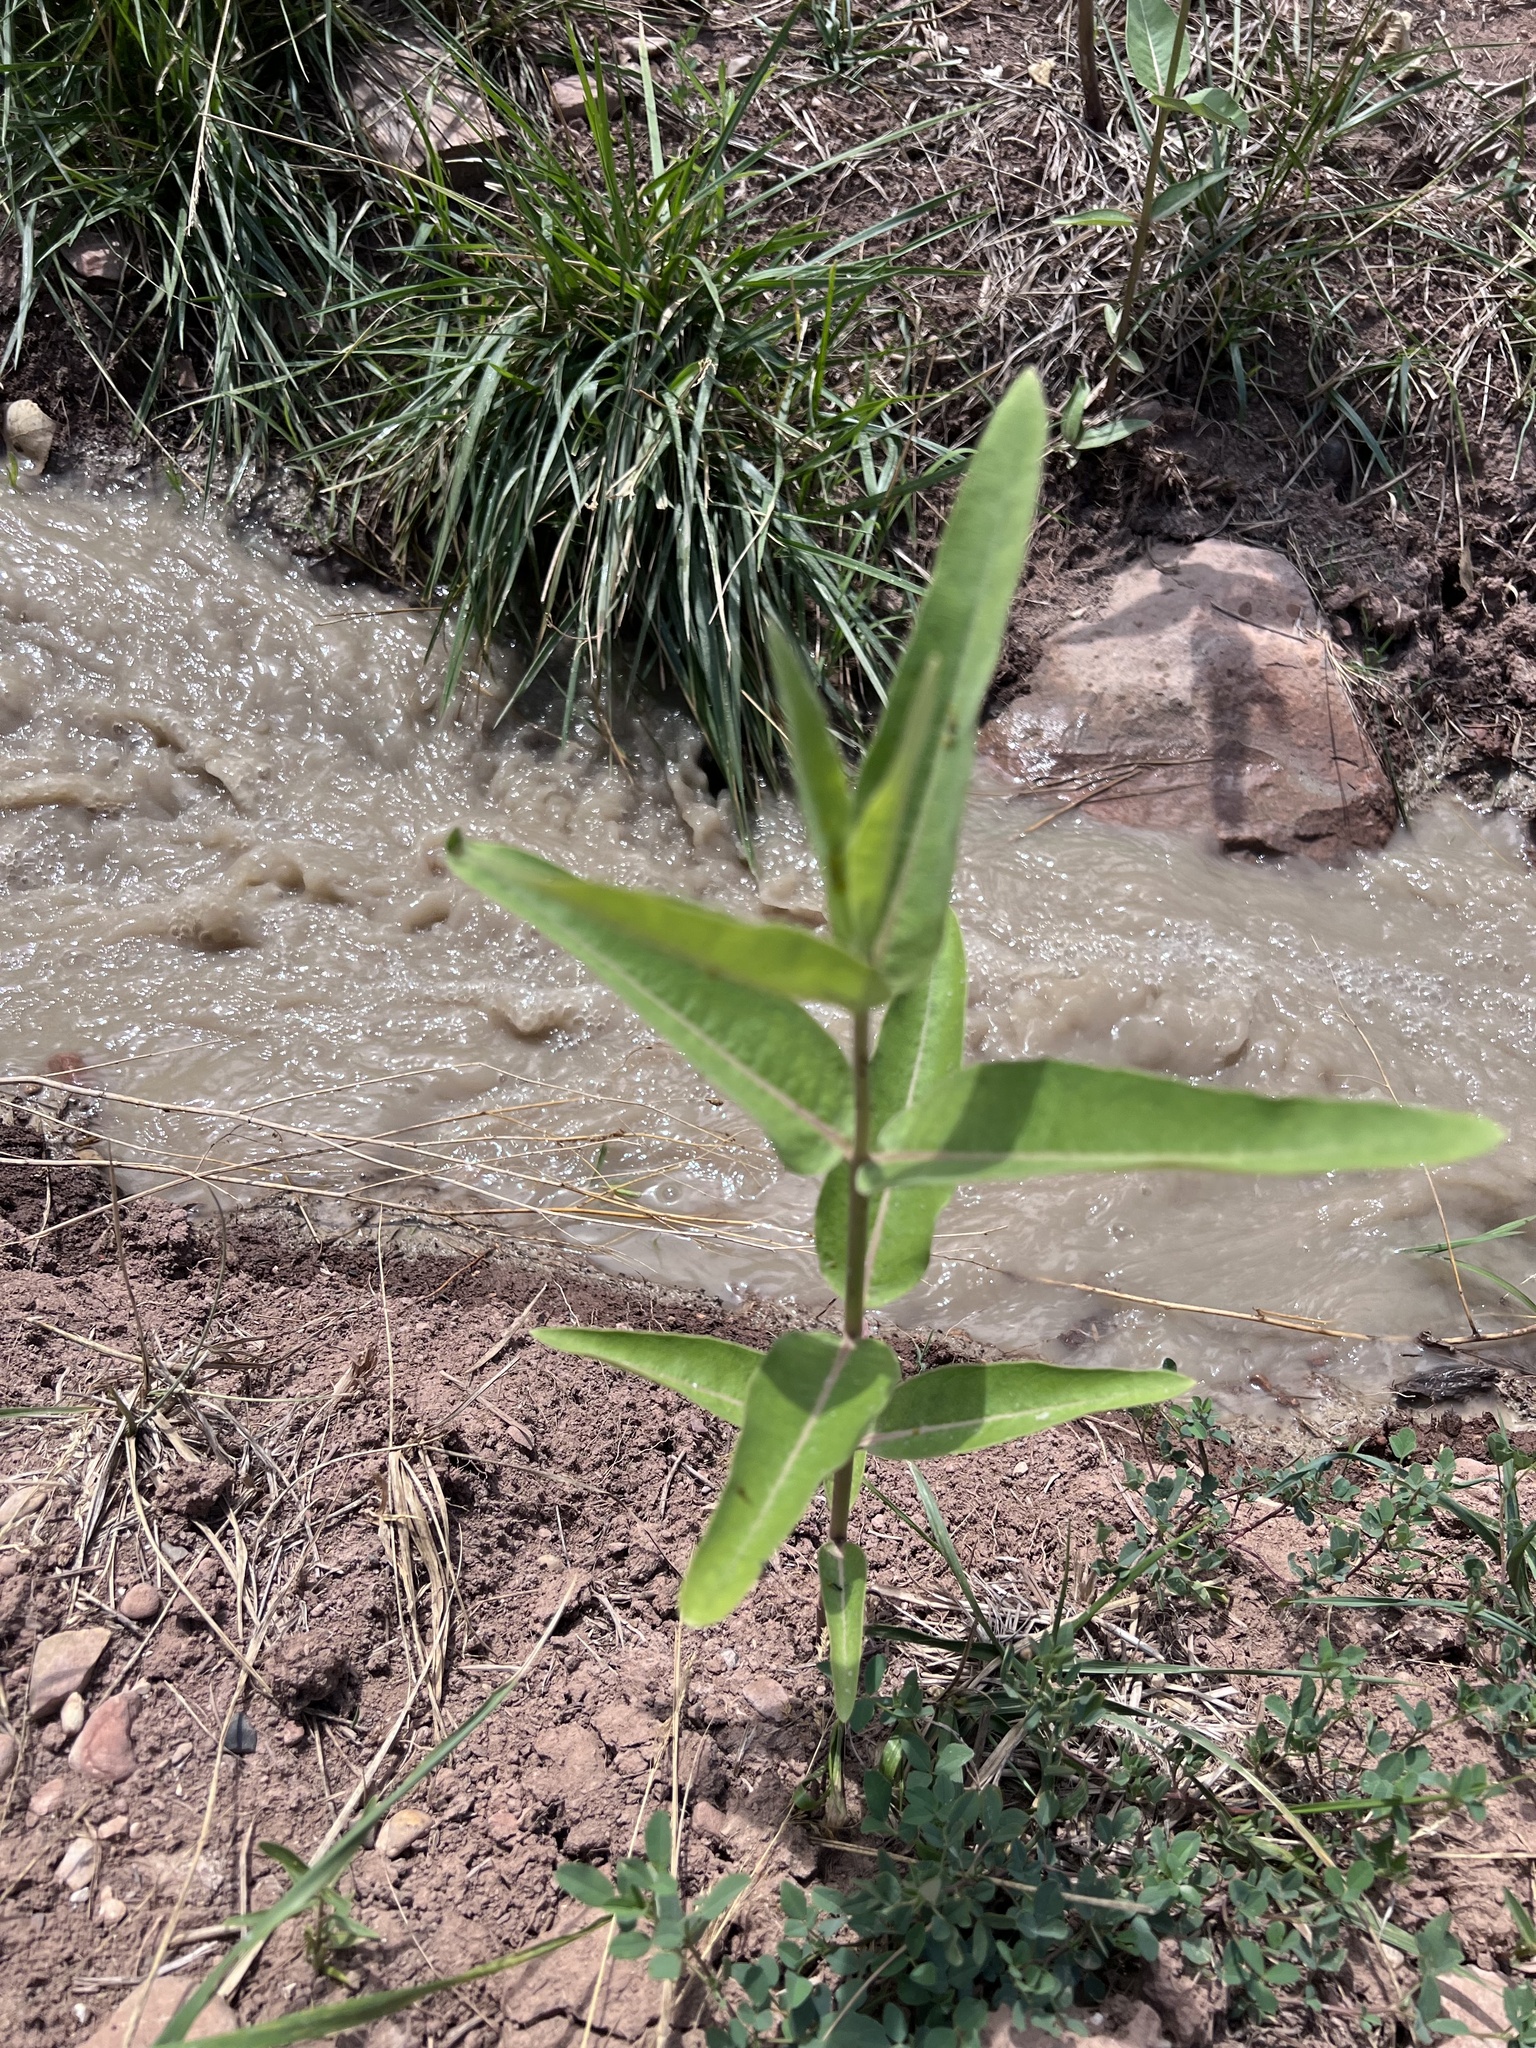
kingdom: Plantae
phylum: Tracheophyta
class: Magnoliopsida
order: Gentianales
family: Apocynaceae
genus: Asclepias
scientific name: Asclepias speciosa
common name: Showy milkweed
